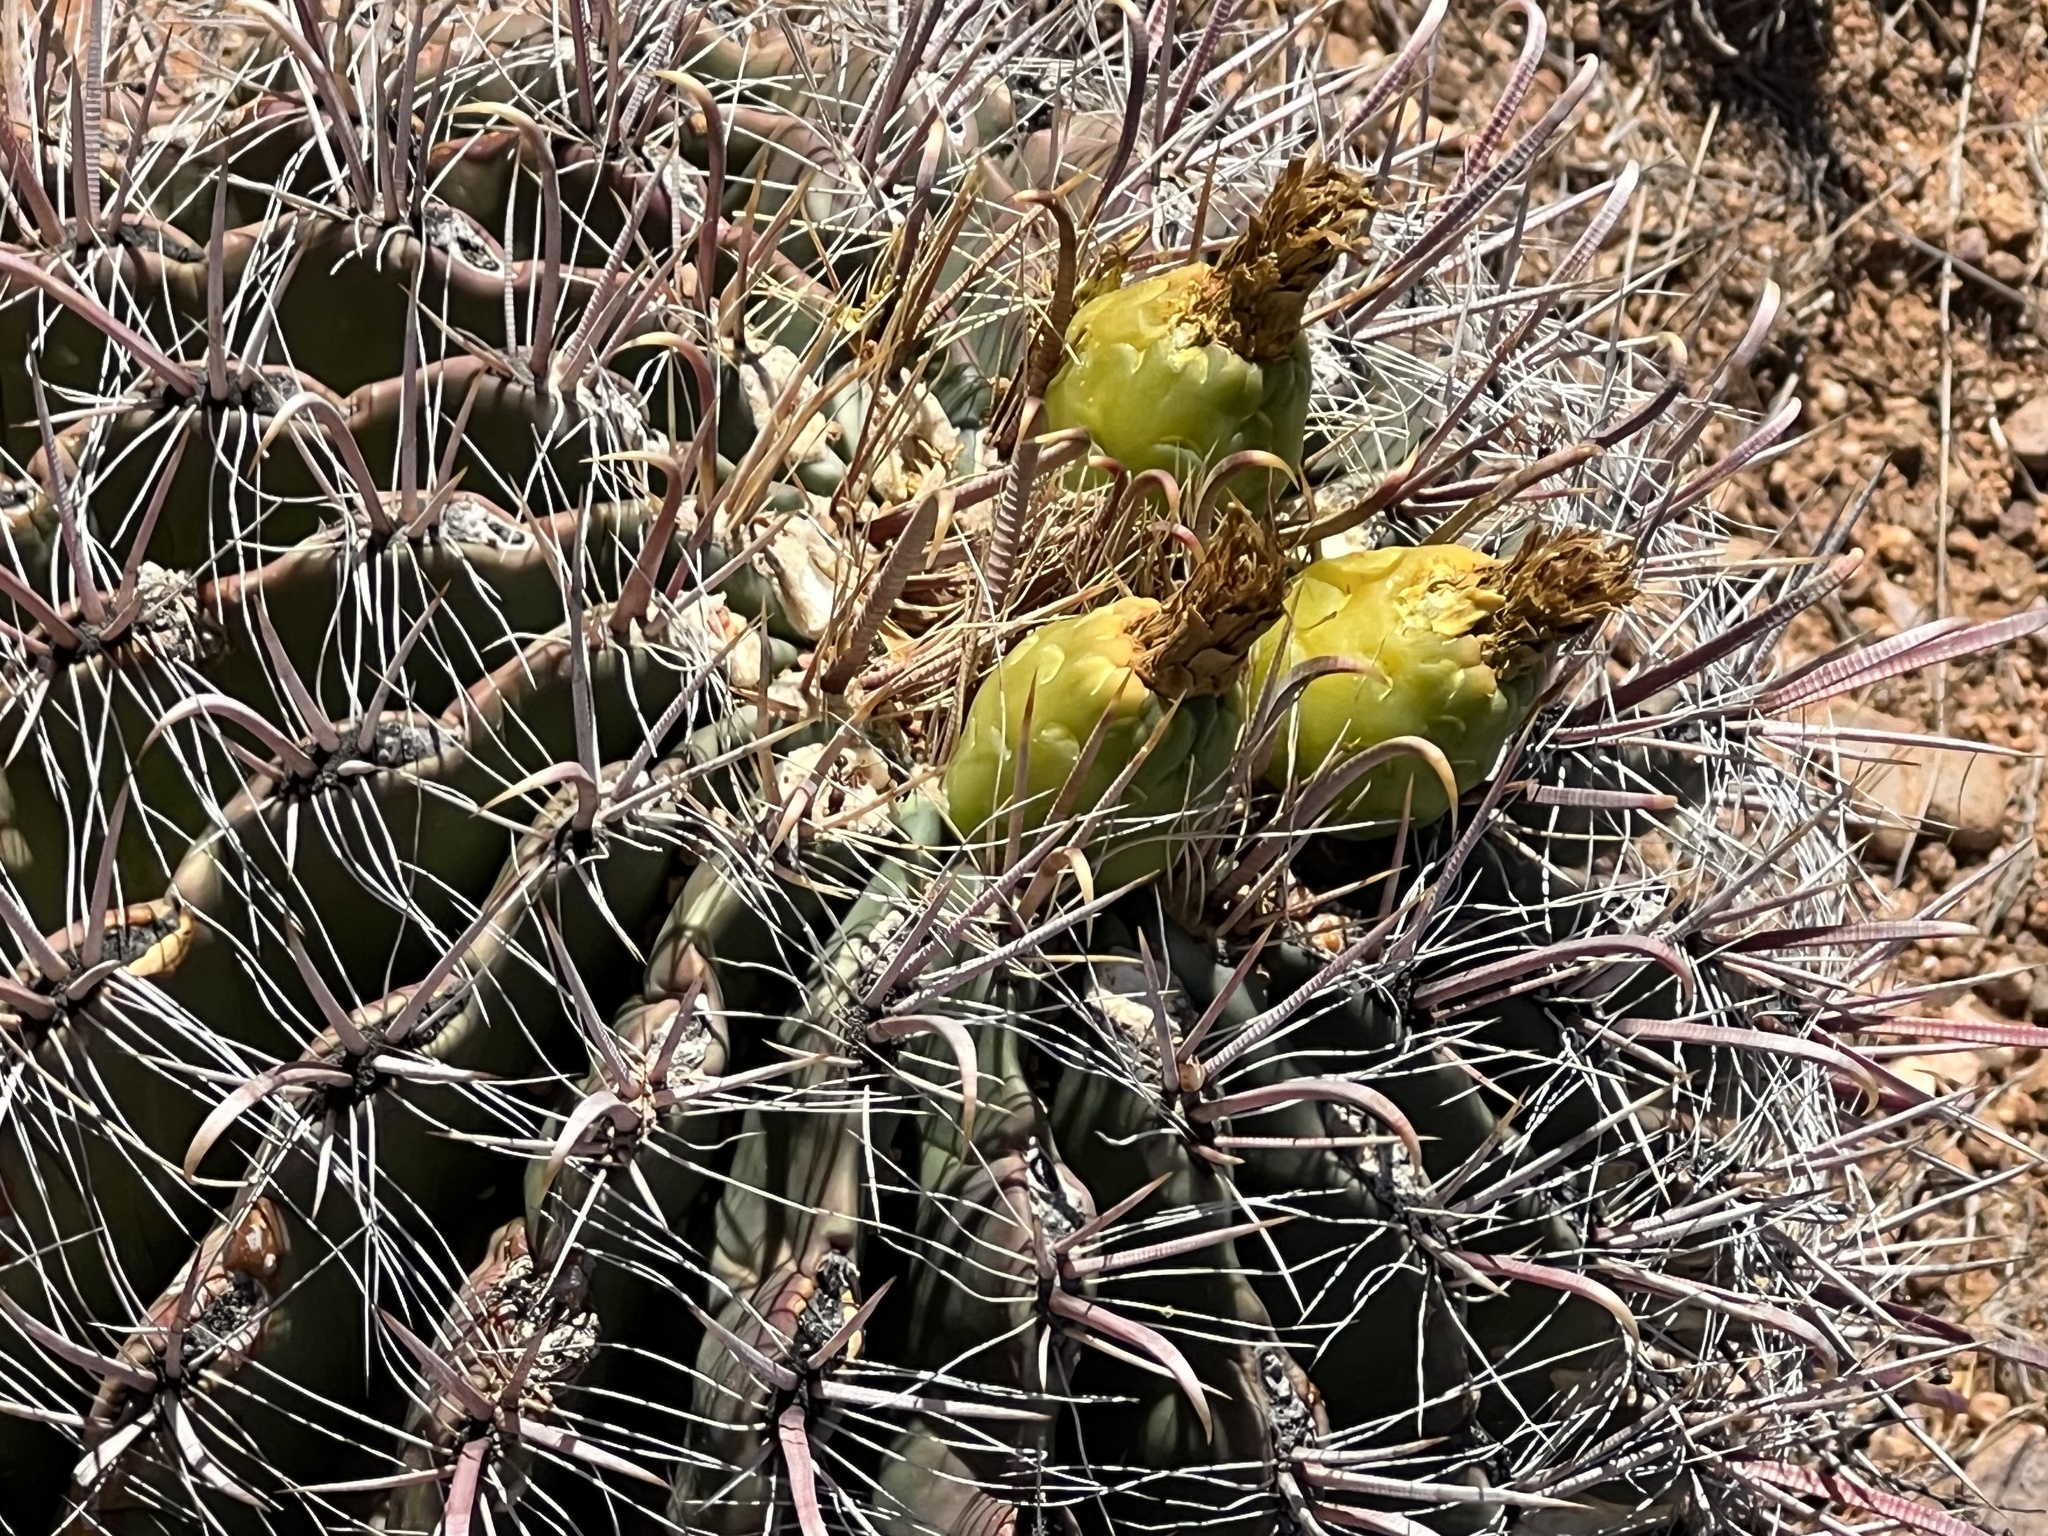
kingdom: Plantae
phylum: Tracheophyta
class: Magnoliopsida
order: Caryophyllales
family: Cactaceae
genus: Ferocactus
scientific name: Ferocactus wislizeni
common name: Candy barrel cactus
